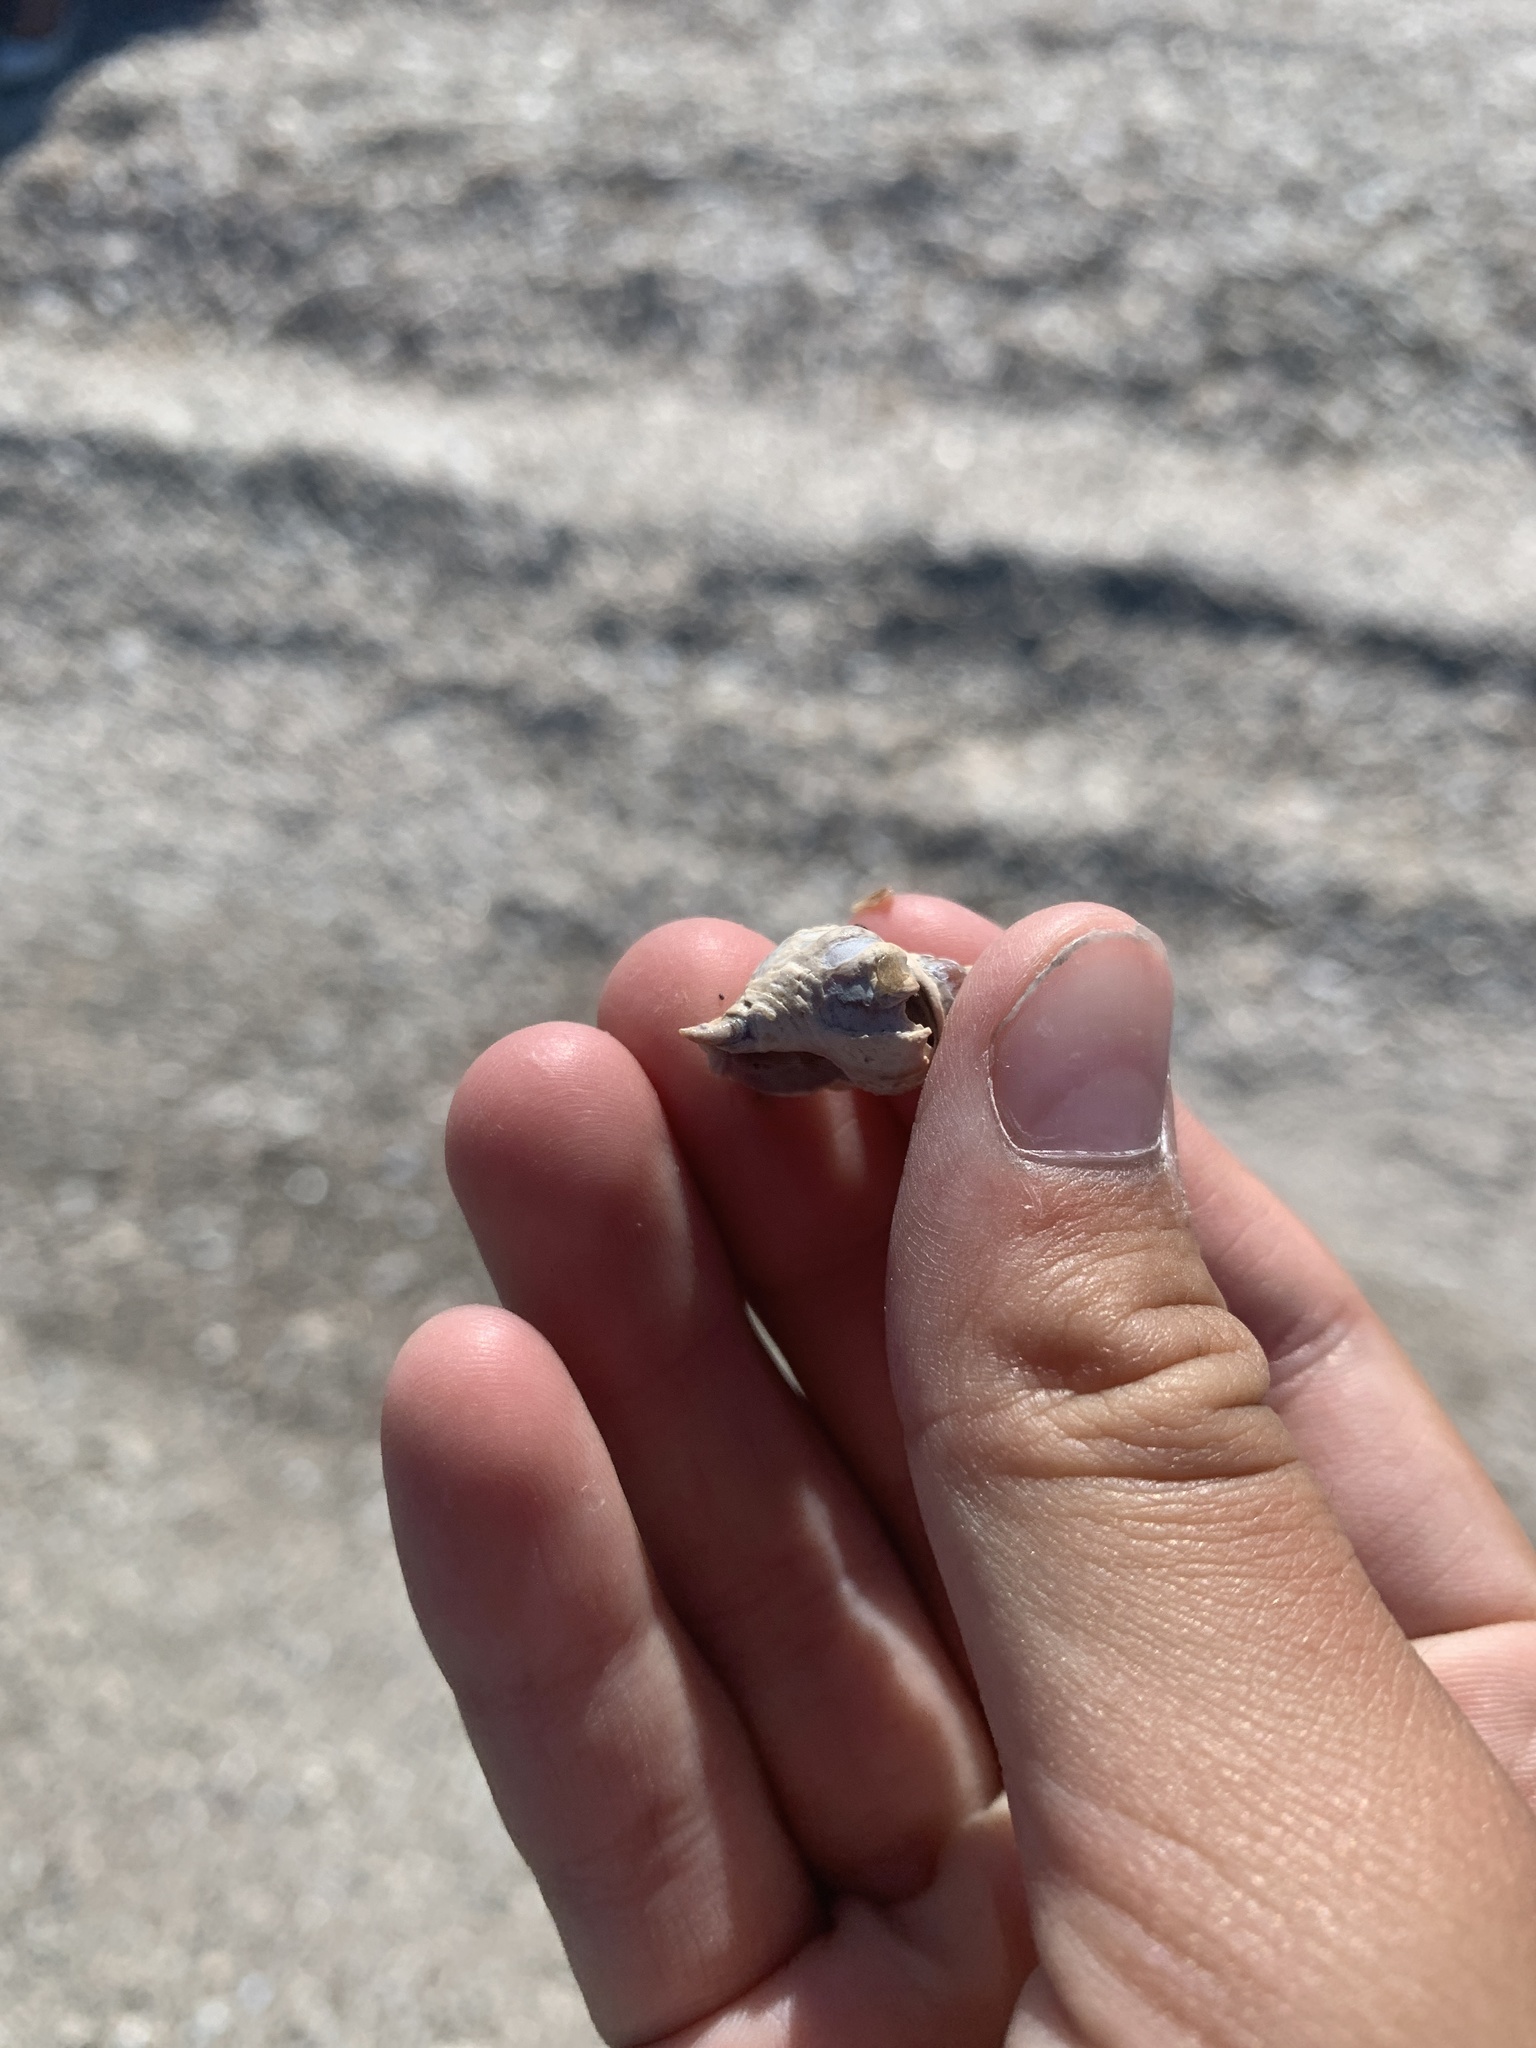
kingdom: Animalia
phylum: Mollusca
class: Gastropoda
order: Neogastropoda
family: Muricidae
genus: Urosalpinx
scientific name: Urosalpinx cinerea
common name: American sting winkle
